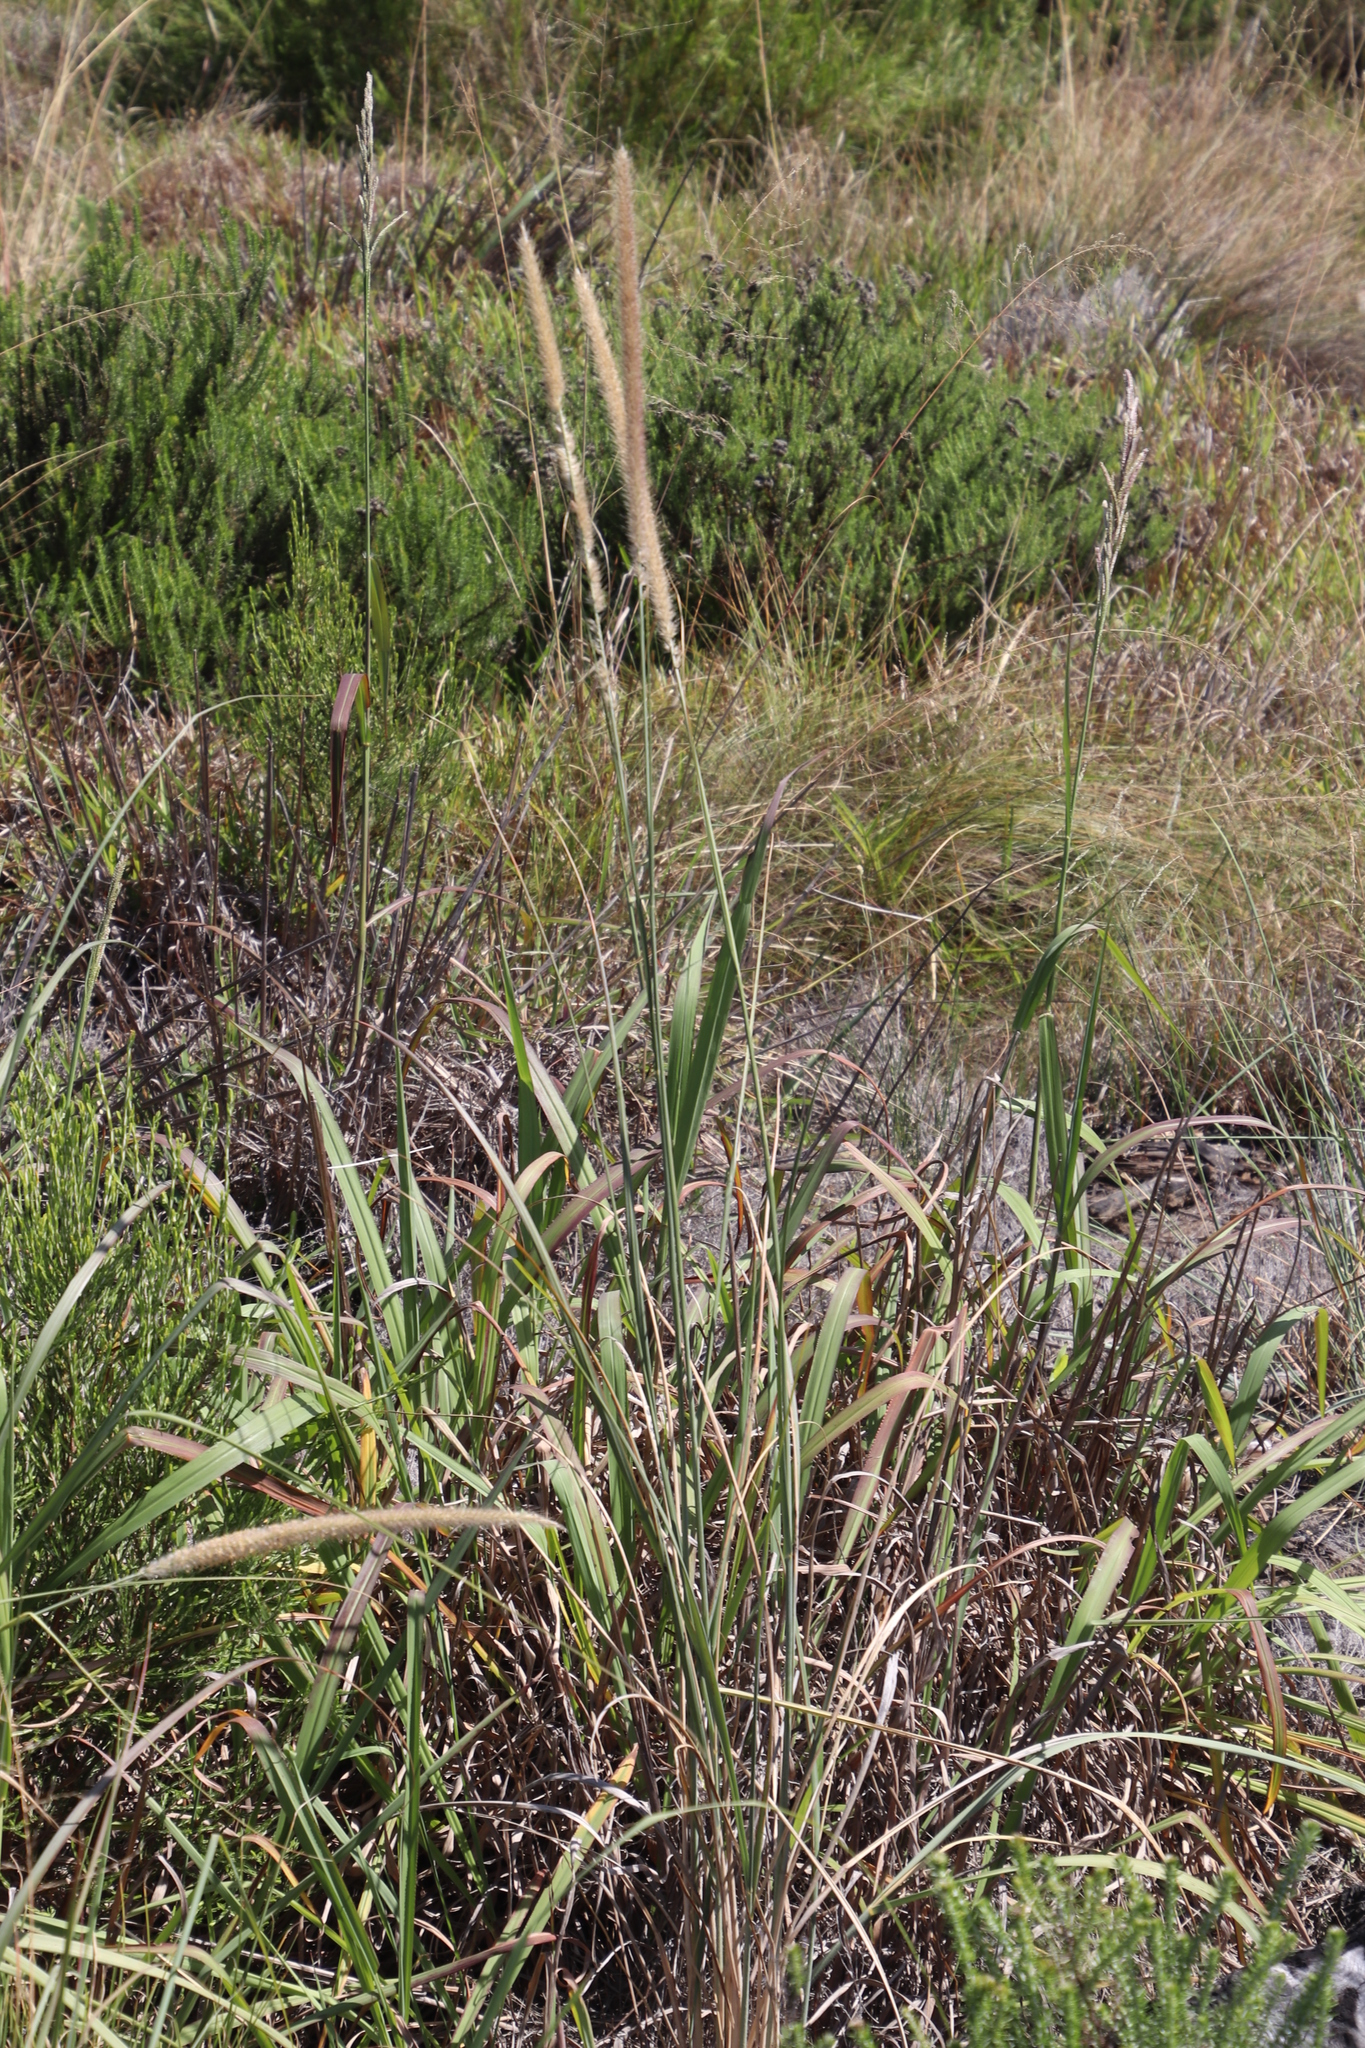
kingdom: Plantae
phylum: Tracheophyta
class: Liliopsida
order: Poales
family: Poaceae
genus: Cenchrus
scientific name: Cenchrus caudatus
